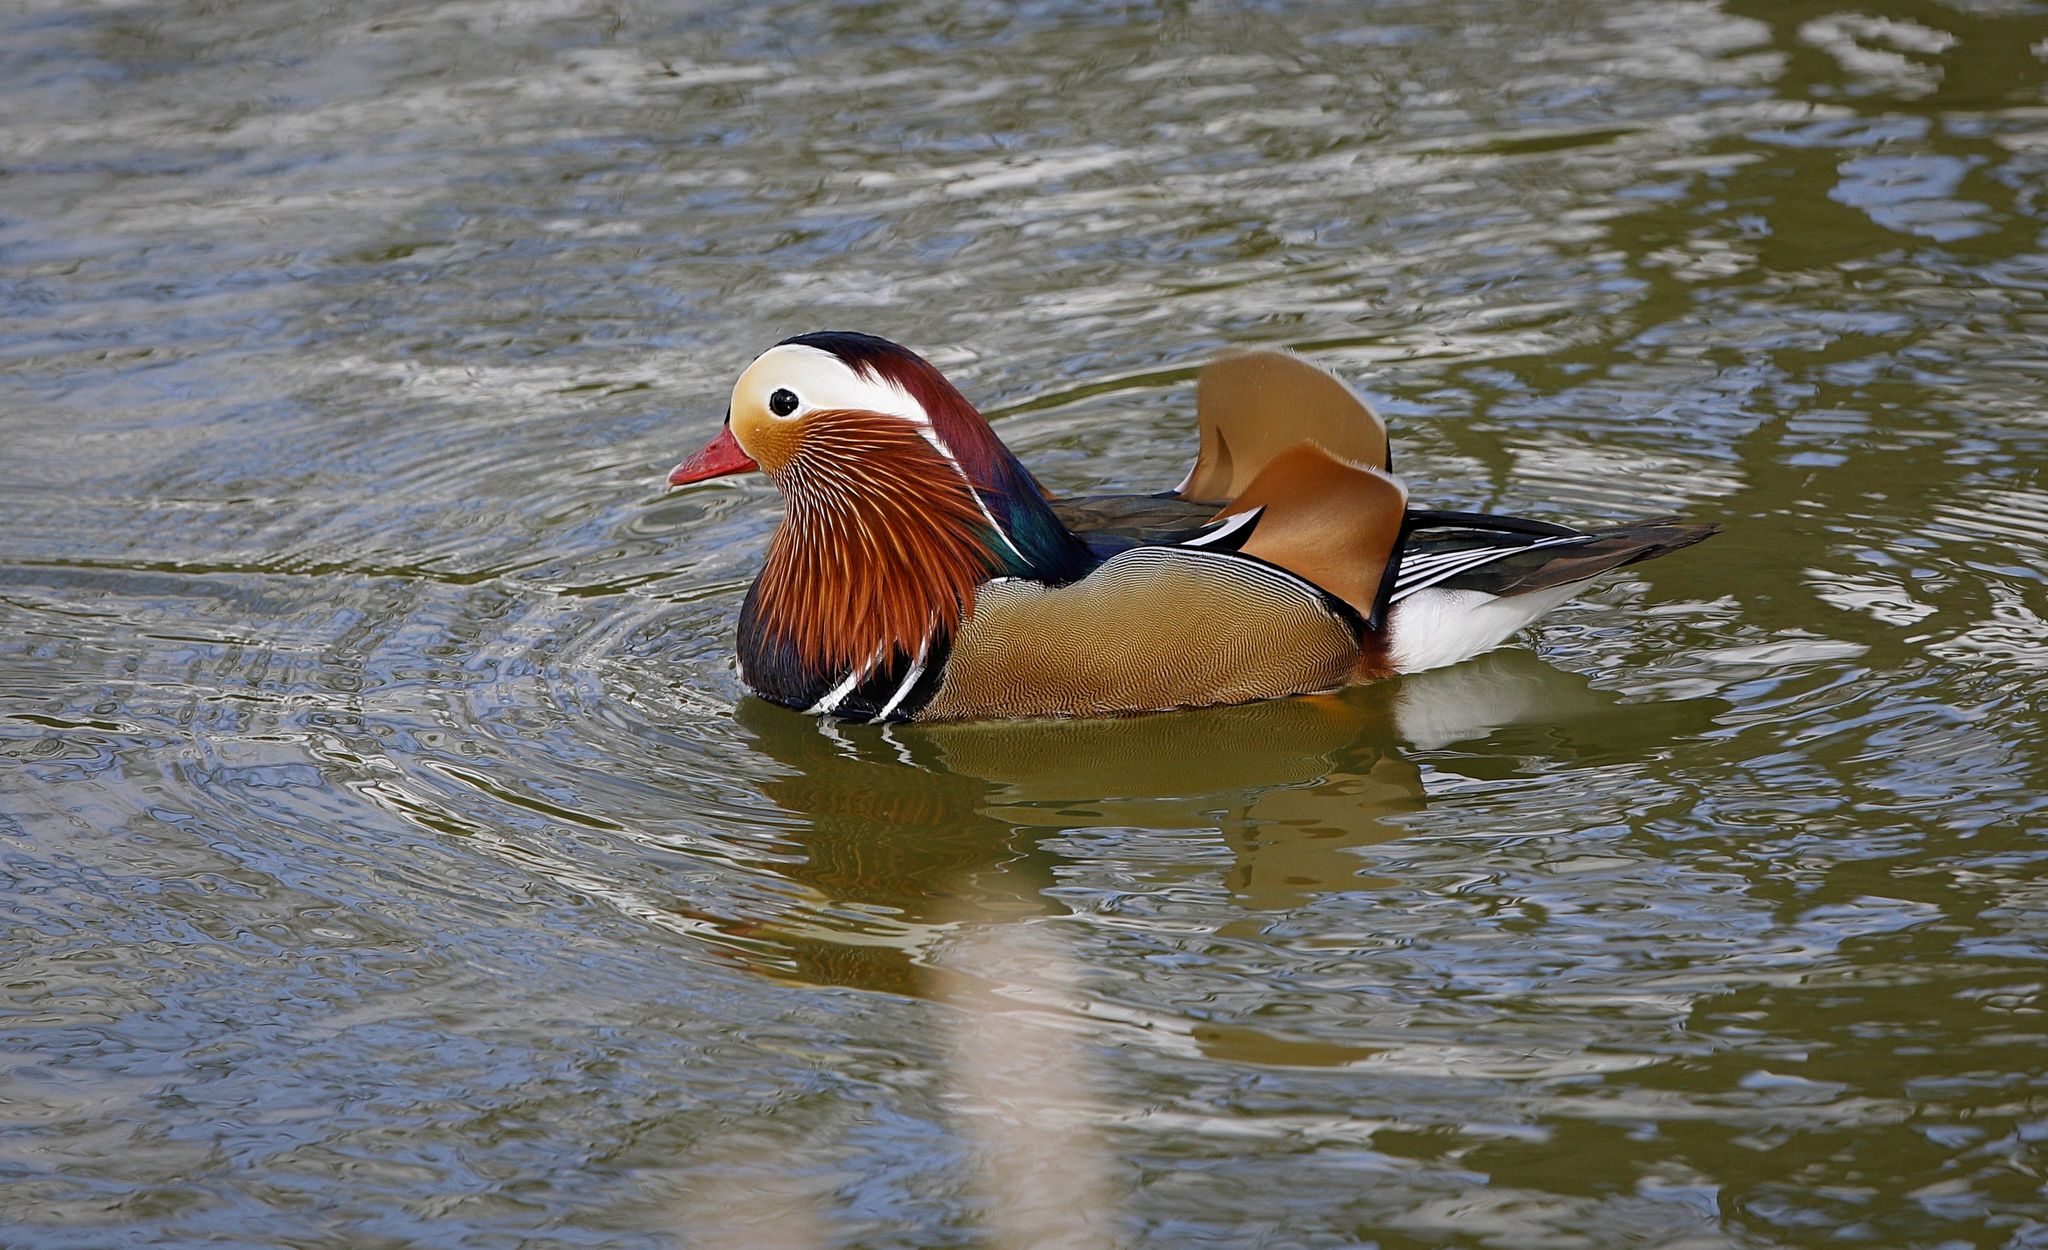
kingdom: Animalia
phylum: Chordata
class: Aves
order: Anseriformes
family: Anatidae
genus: Aix
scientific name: Aix galericulata
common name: Mandarin duck
